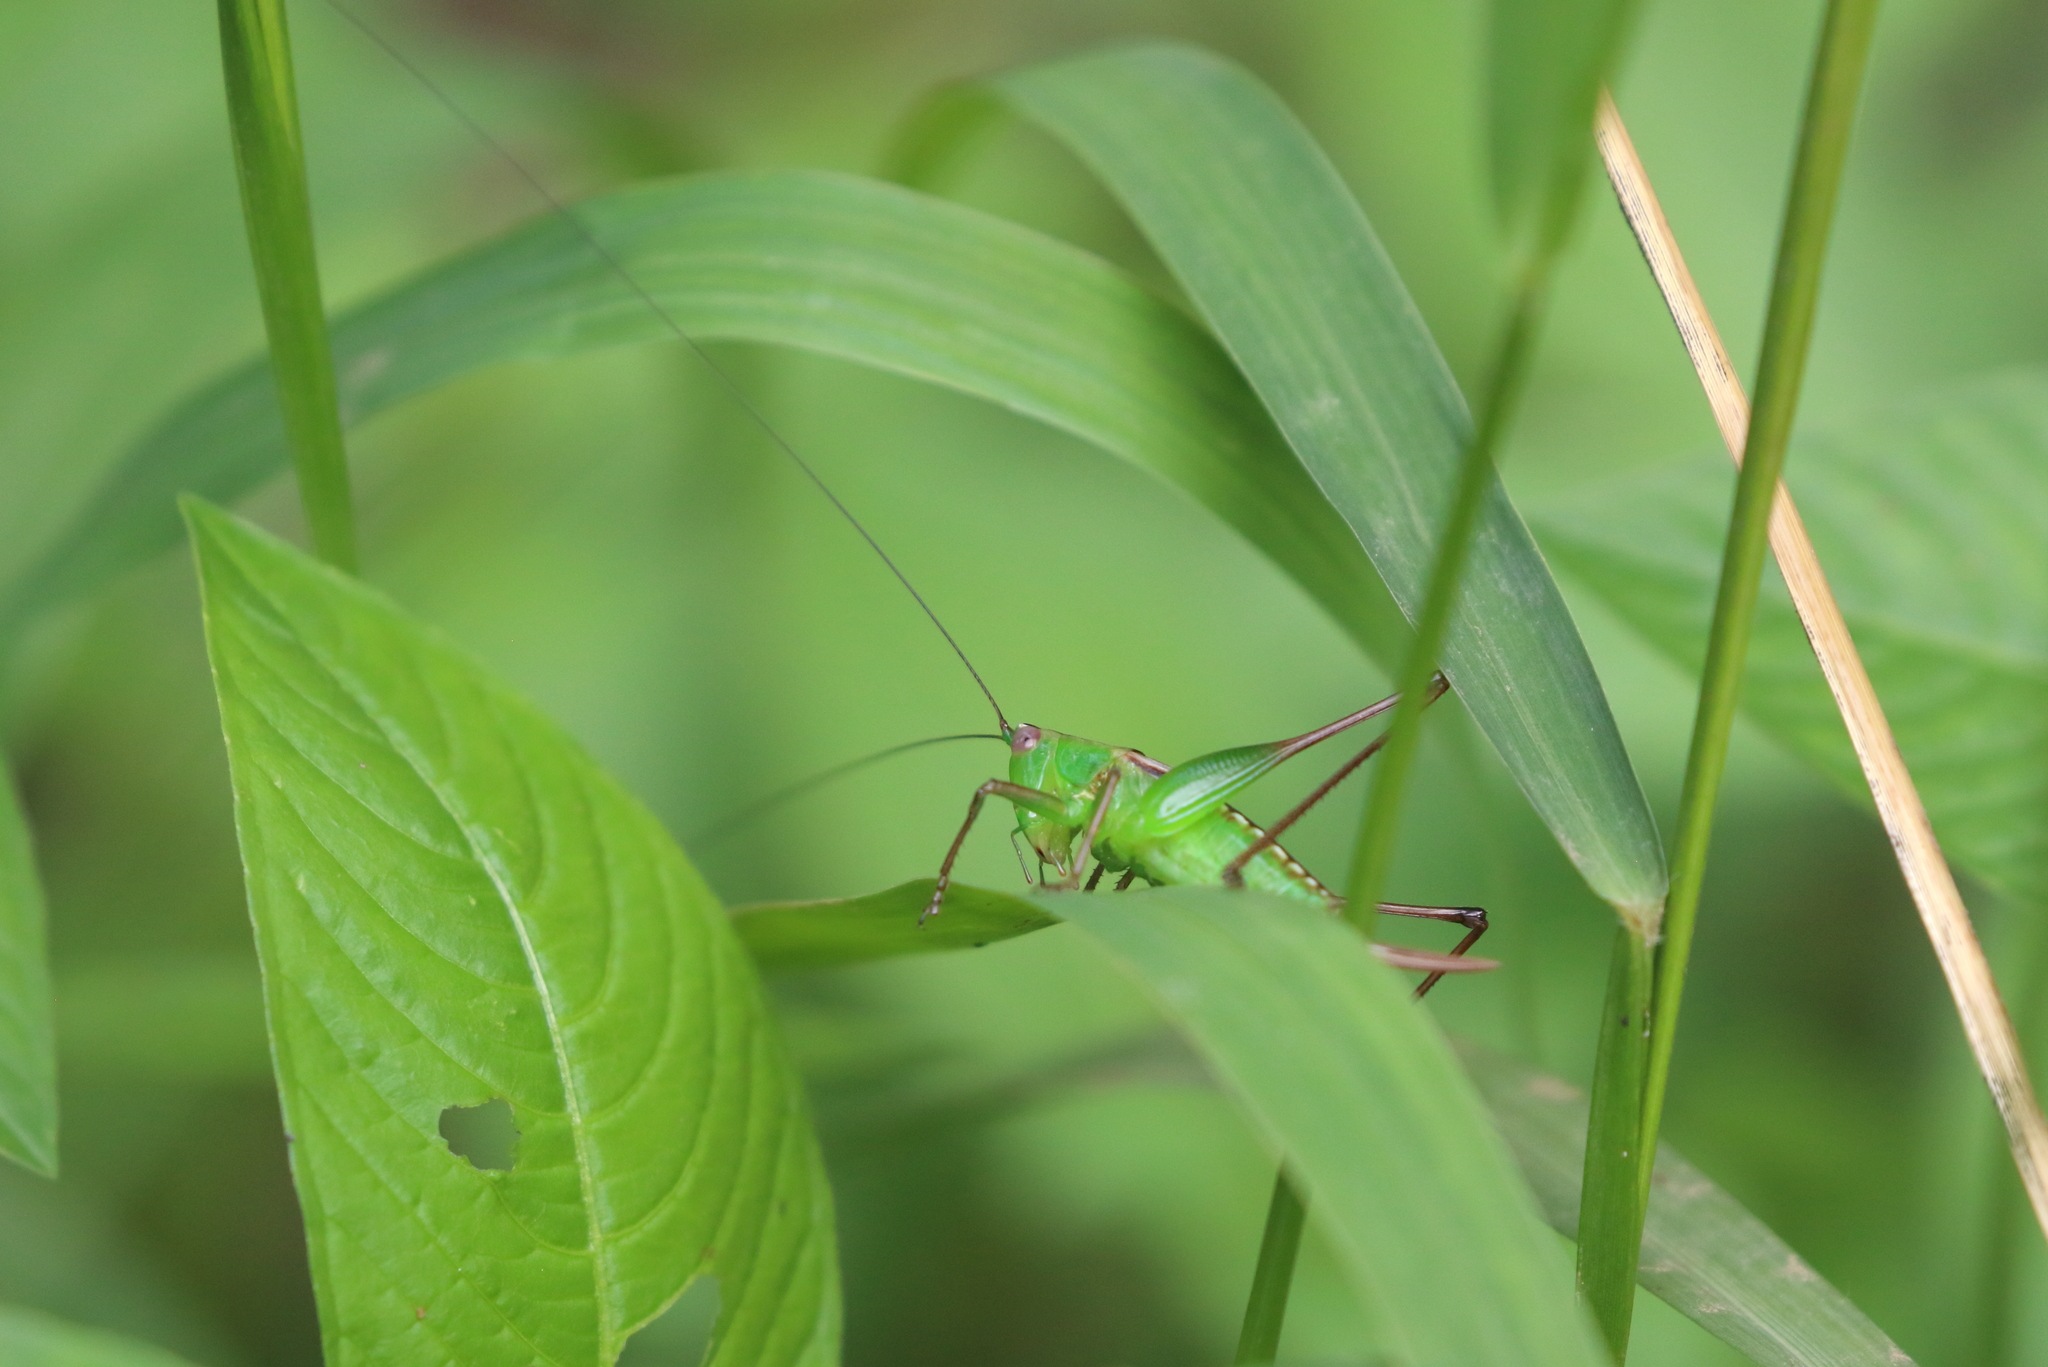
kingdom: Animalia
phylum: Arthropoda
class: Insecta
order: Orthoptera
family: Tettigoniidae
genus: Conocephalus
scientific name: Conocephalus semivittatus
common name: Blackish meadow katydid
